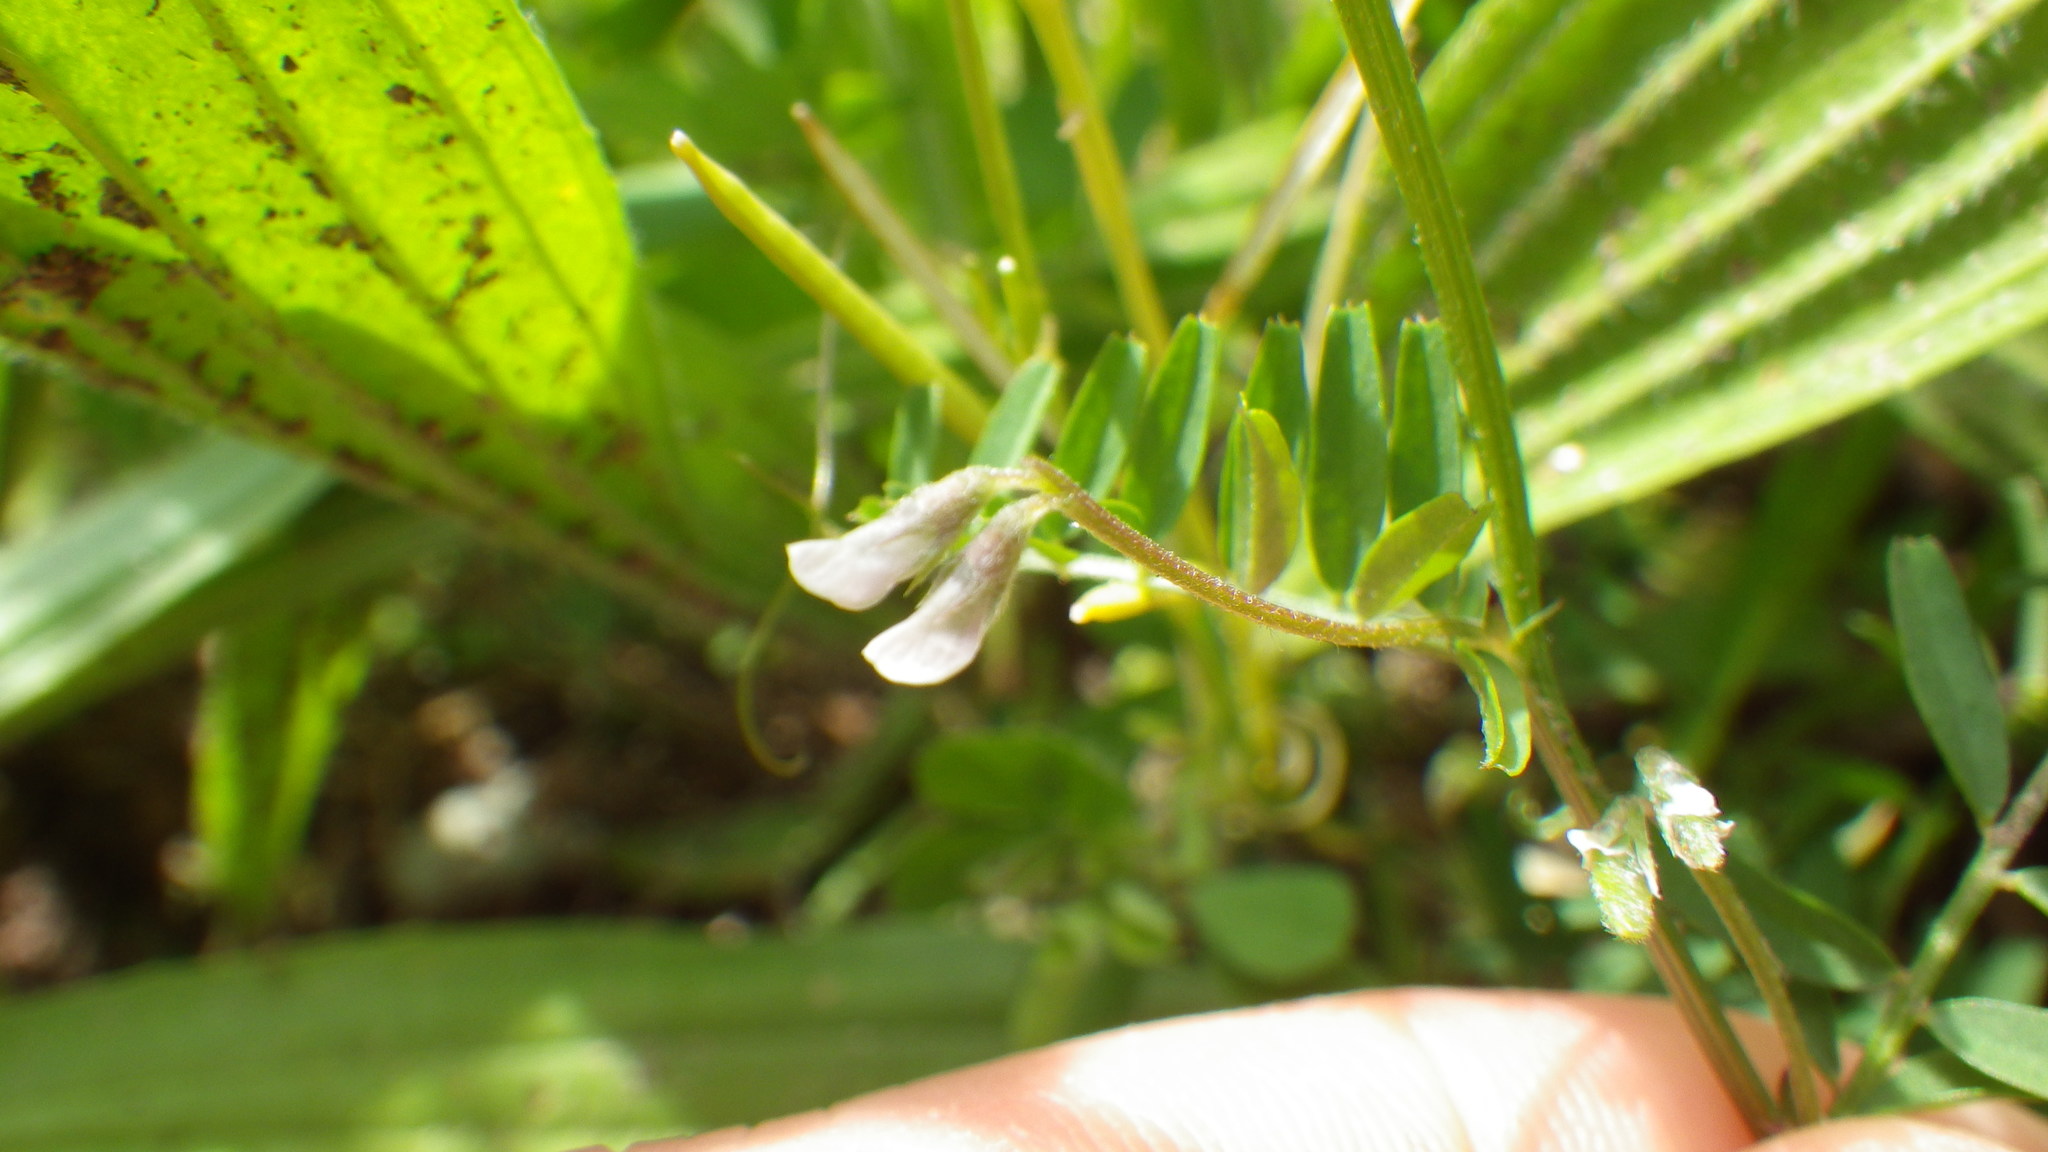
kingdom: Plantae
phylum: Tracheophyta
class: Magnoliopsida
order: Fabales
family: Fabaceae
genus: Vicia
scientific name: Vicia hirsuta
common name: Tiny vetch
